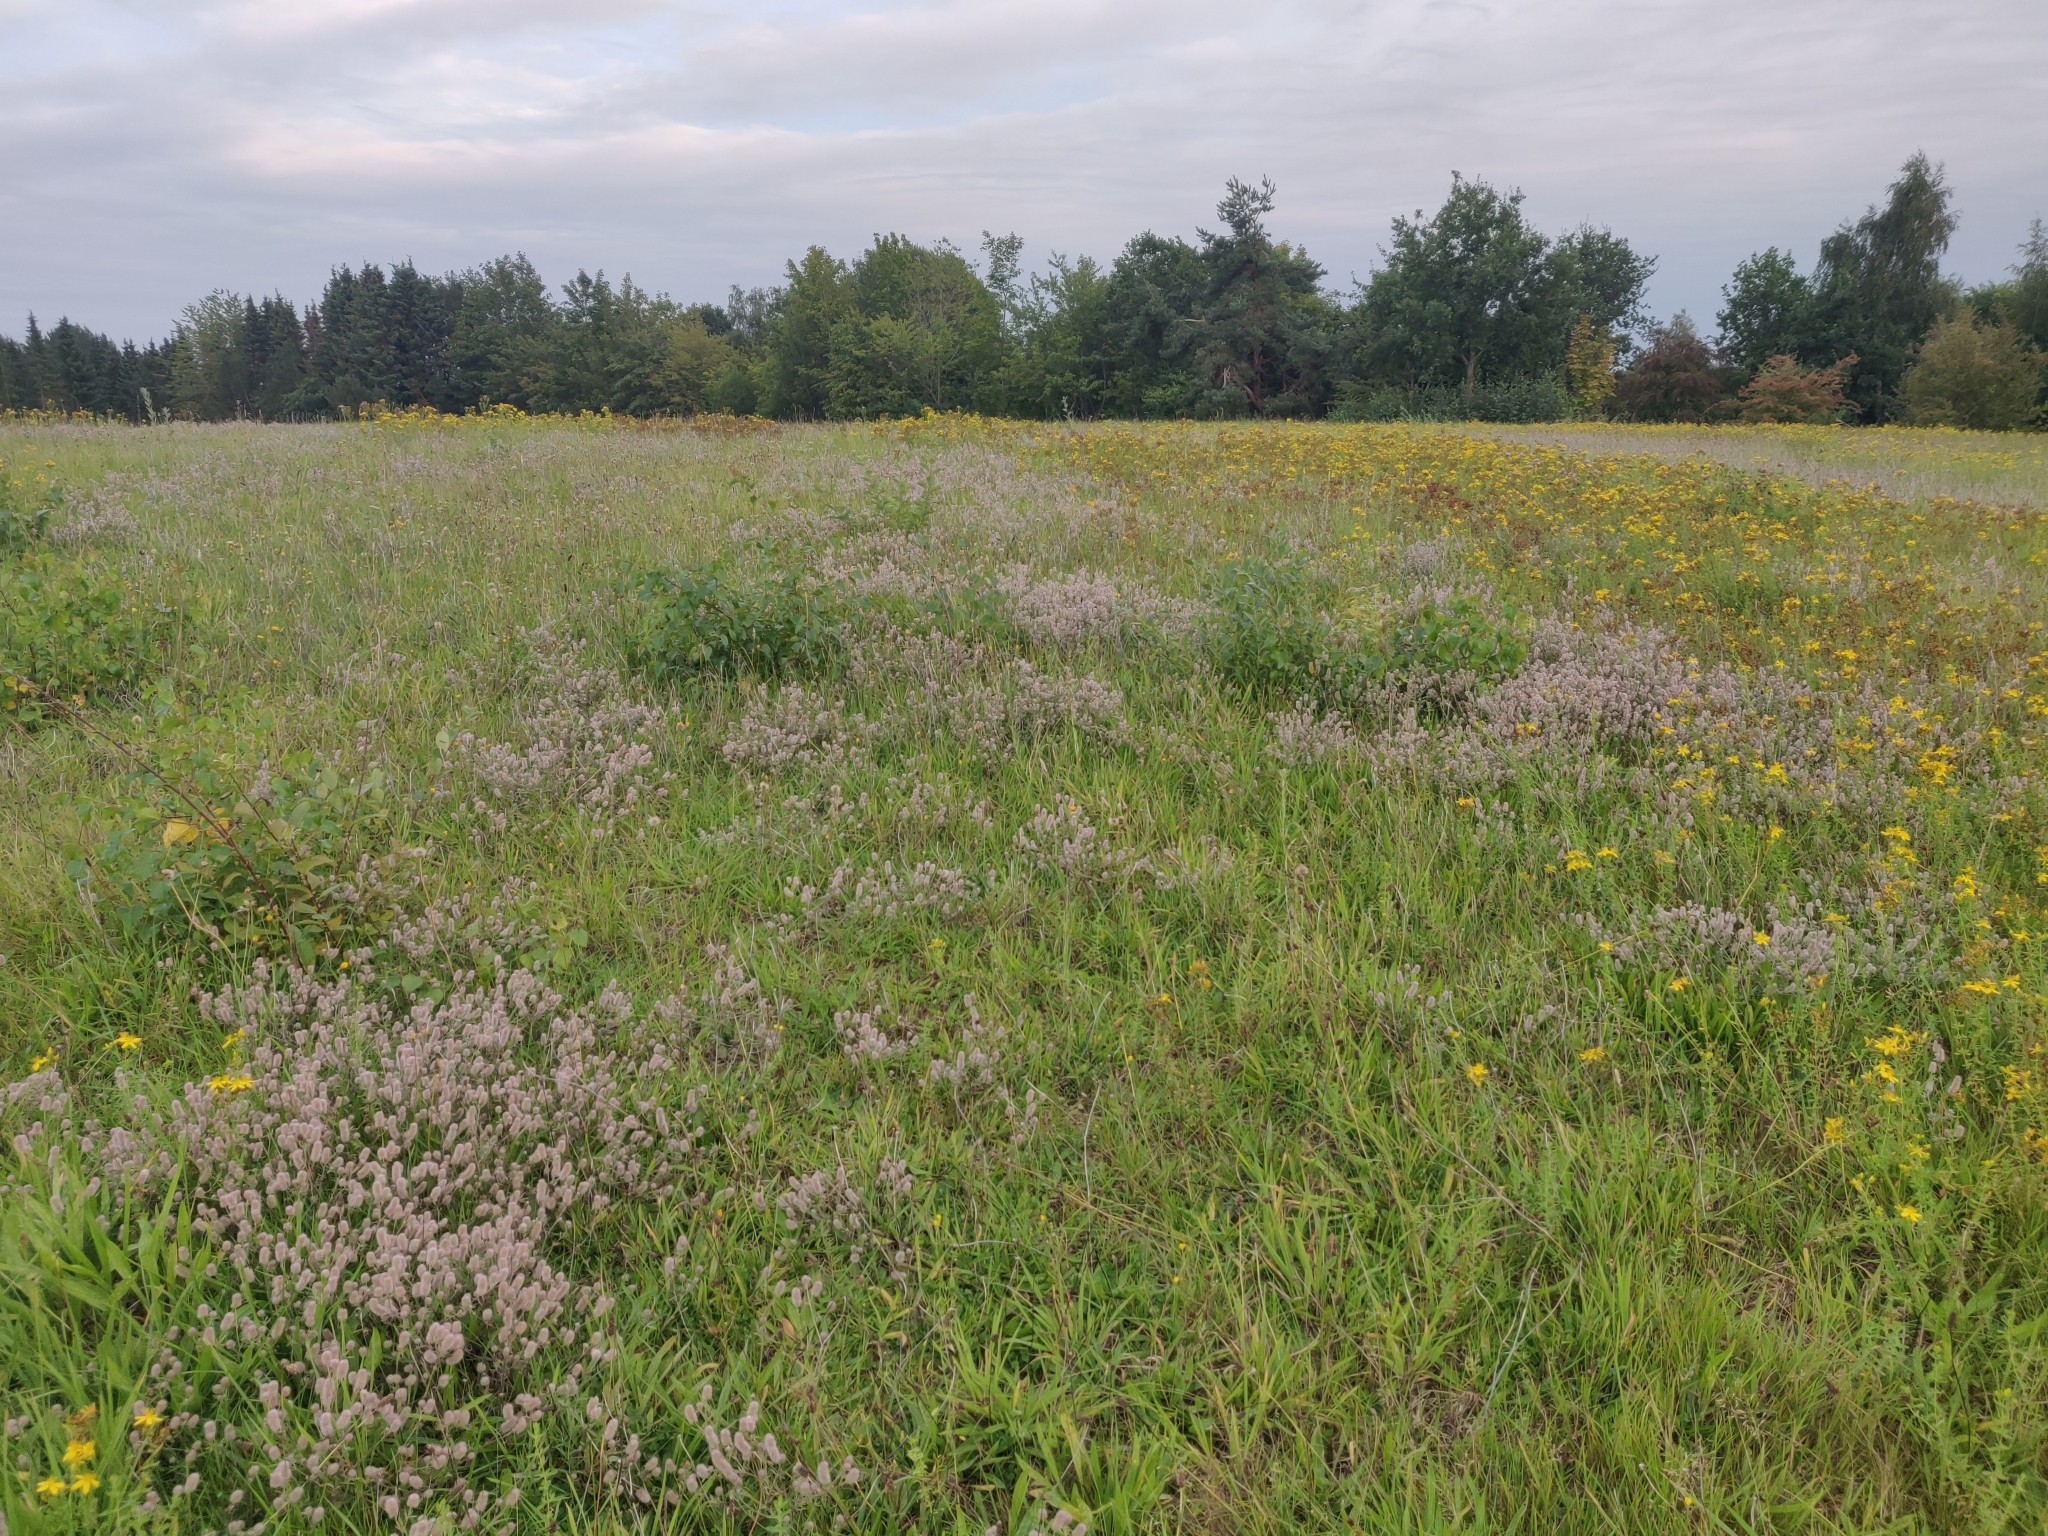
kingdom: Plantae
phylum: Tracheophyta
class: Magnoliopsida
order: Fabales
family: Fabaceae
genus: Trifolium
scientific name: Trifolium arvense
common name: Hare's-foot clover
